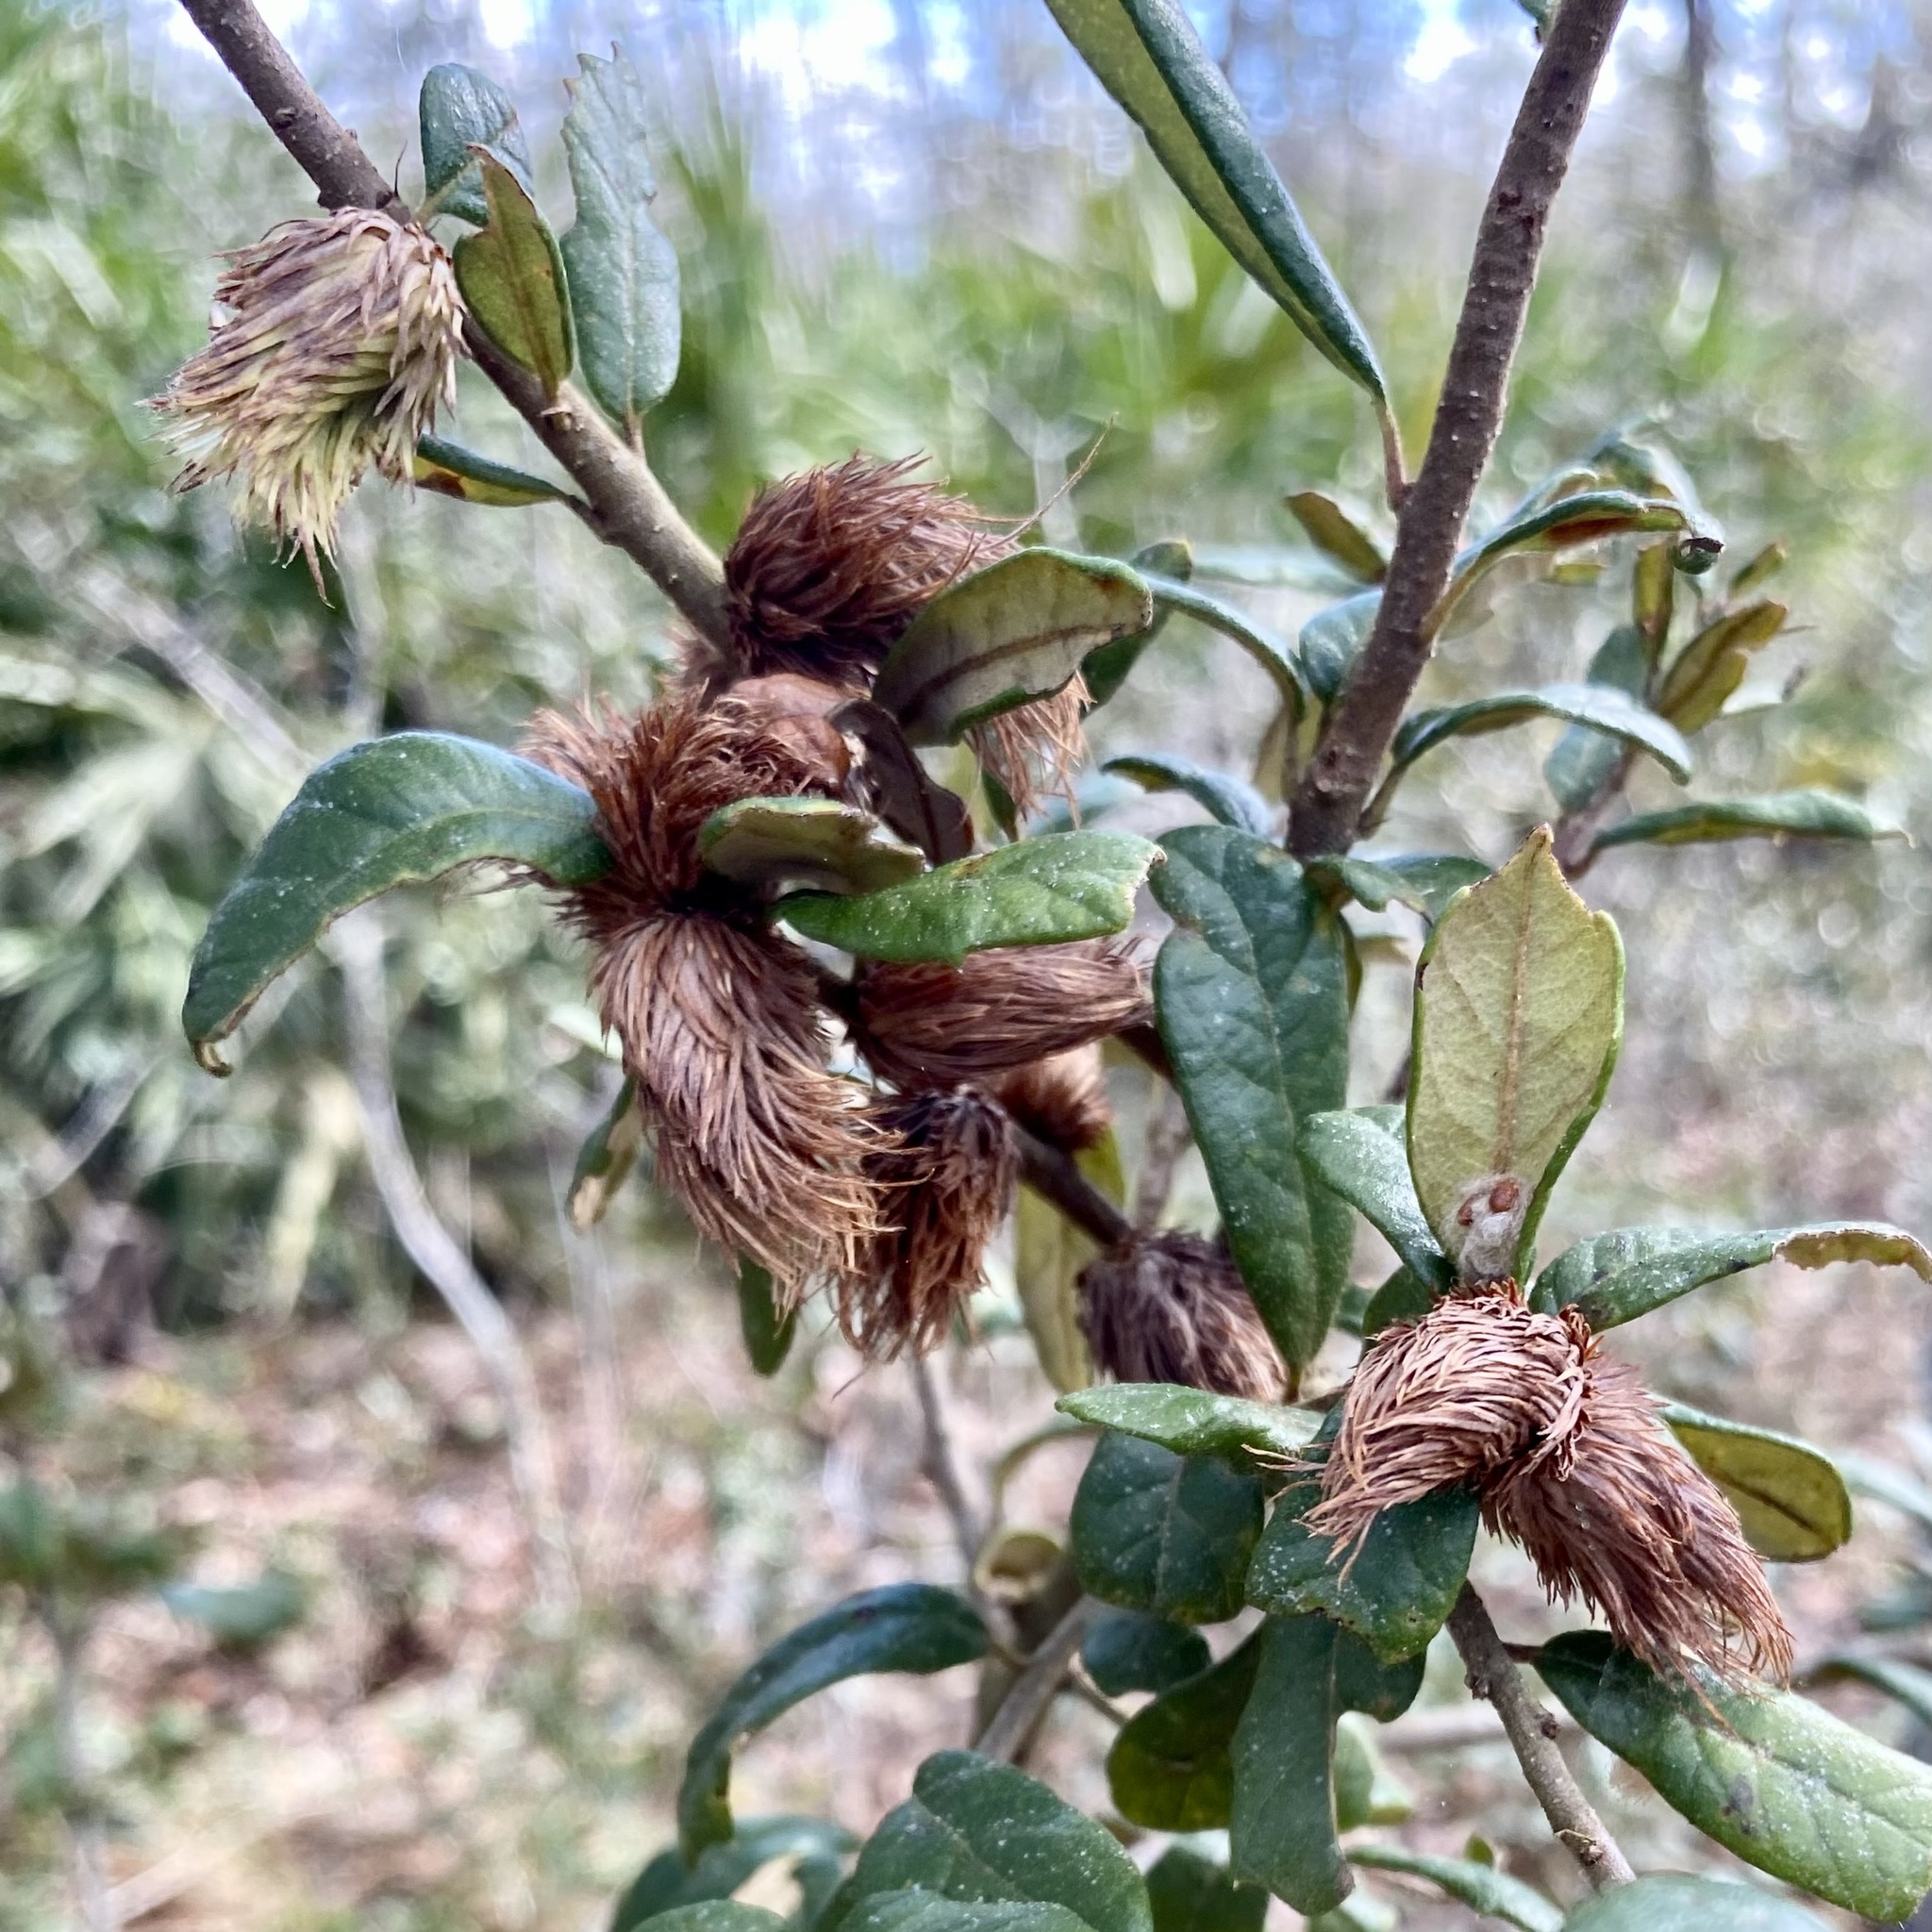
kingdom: Animalia
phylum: Arthropoda
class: Insecta
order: Hymenoptera
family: Cynipidae
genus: Andricus
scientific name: Andricus quercusfoliatus
